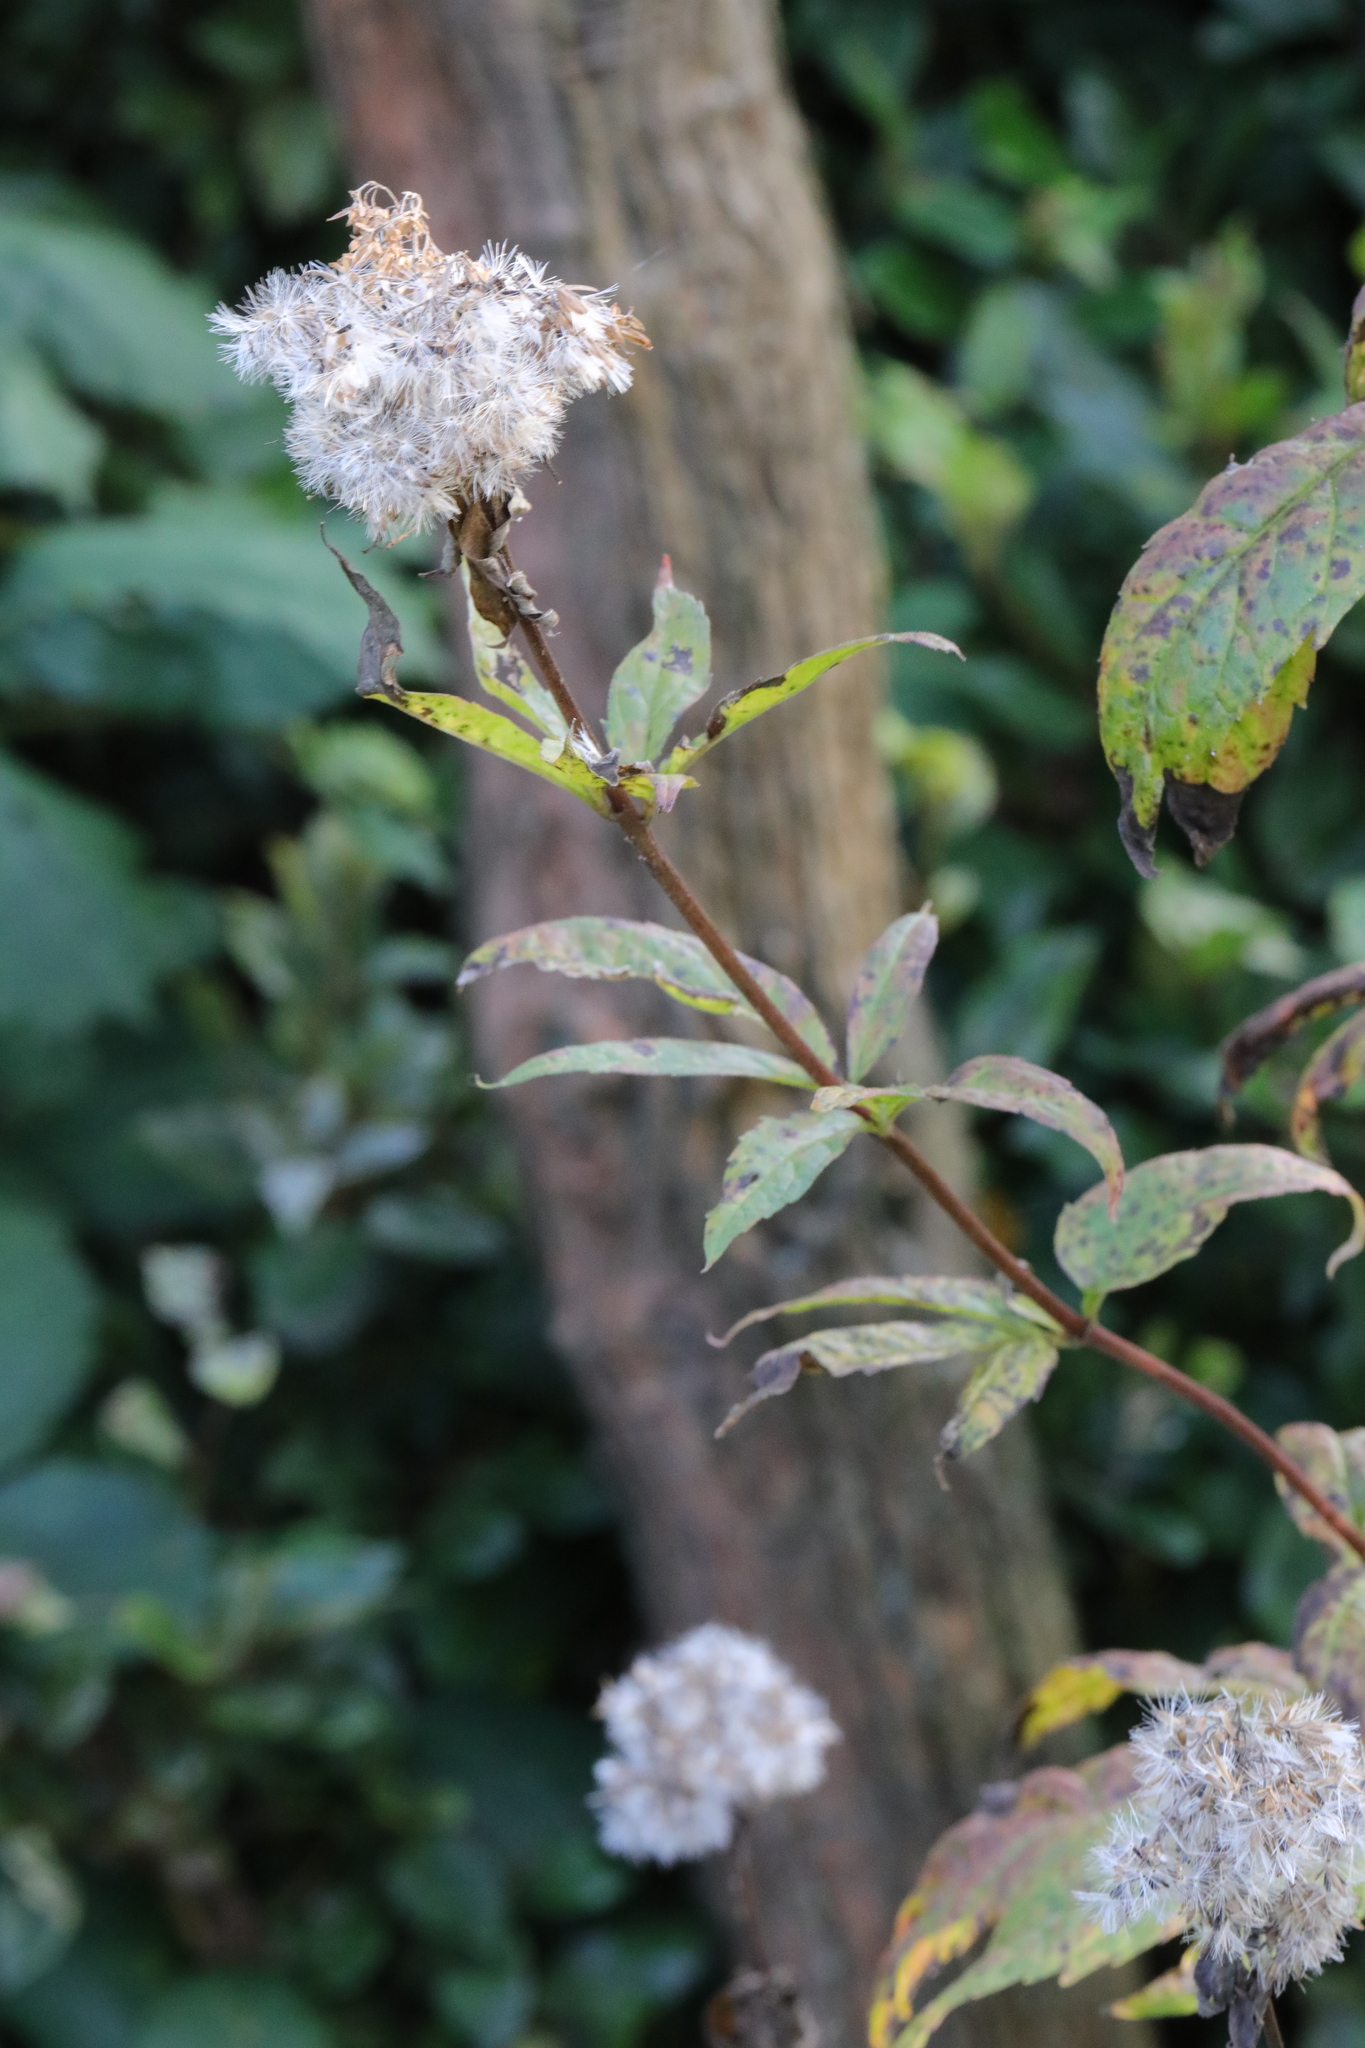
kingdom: Plantae
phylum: Tracheophyta
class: Magnoliopsida
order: Asterales
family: Asteraceae
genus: Eupatorium
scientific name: Eupatorium cannabinum
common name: Hemp-agrimony
